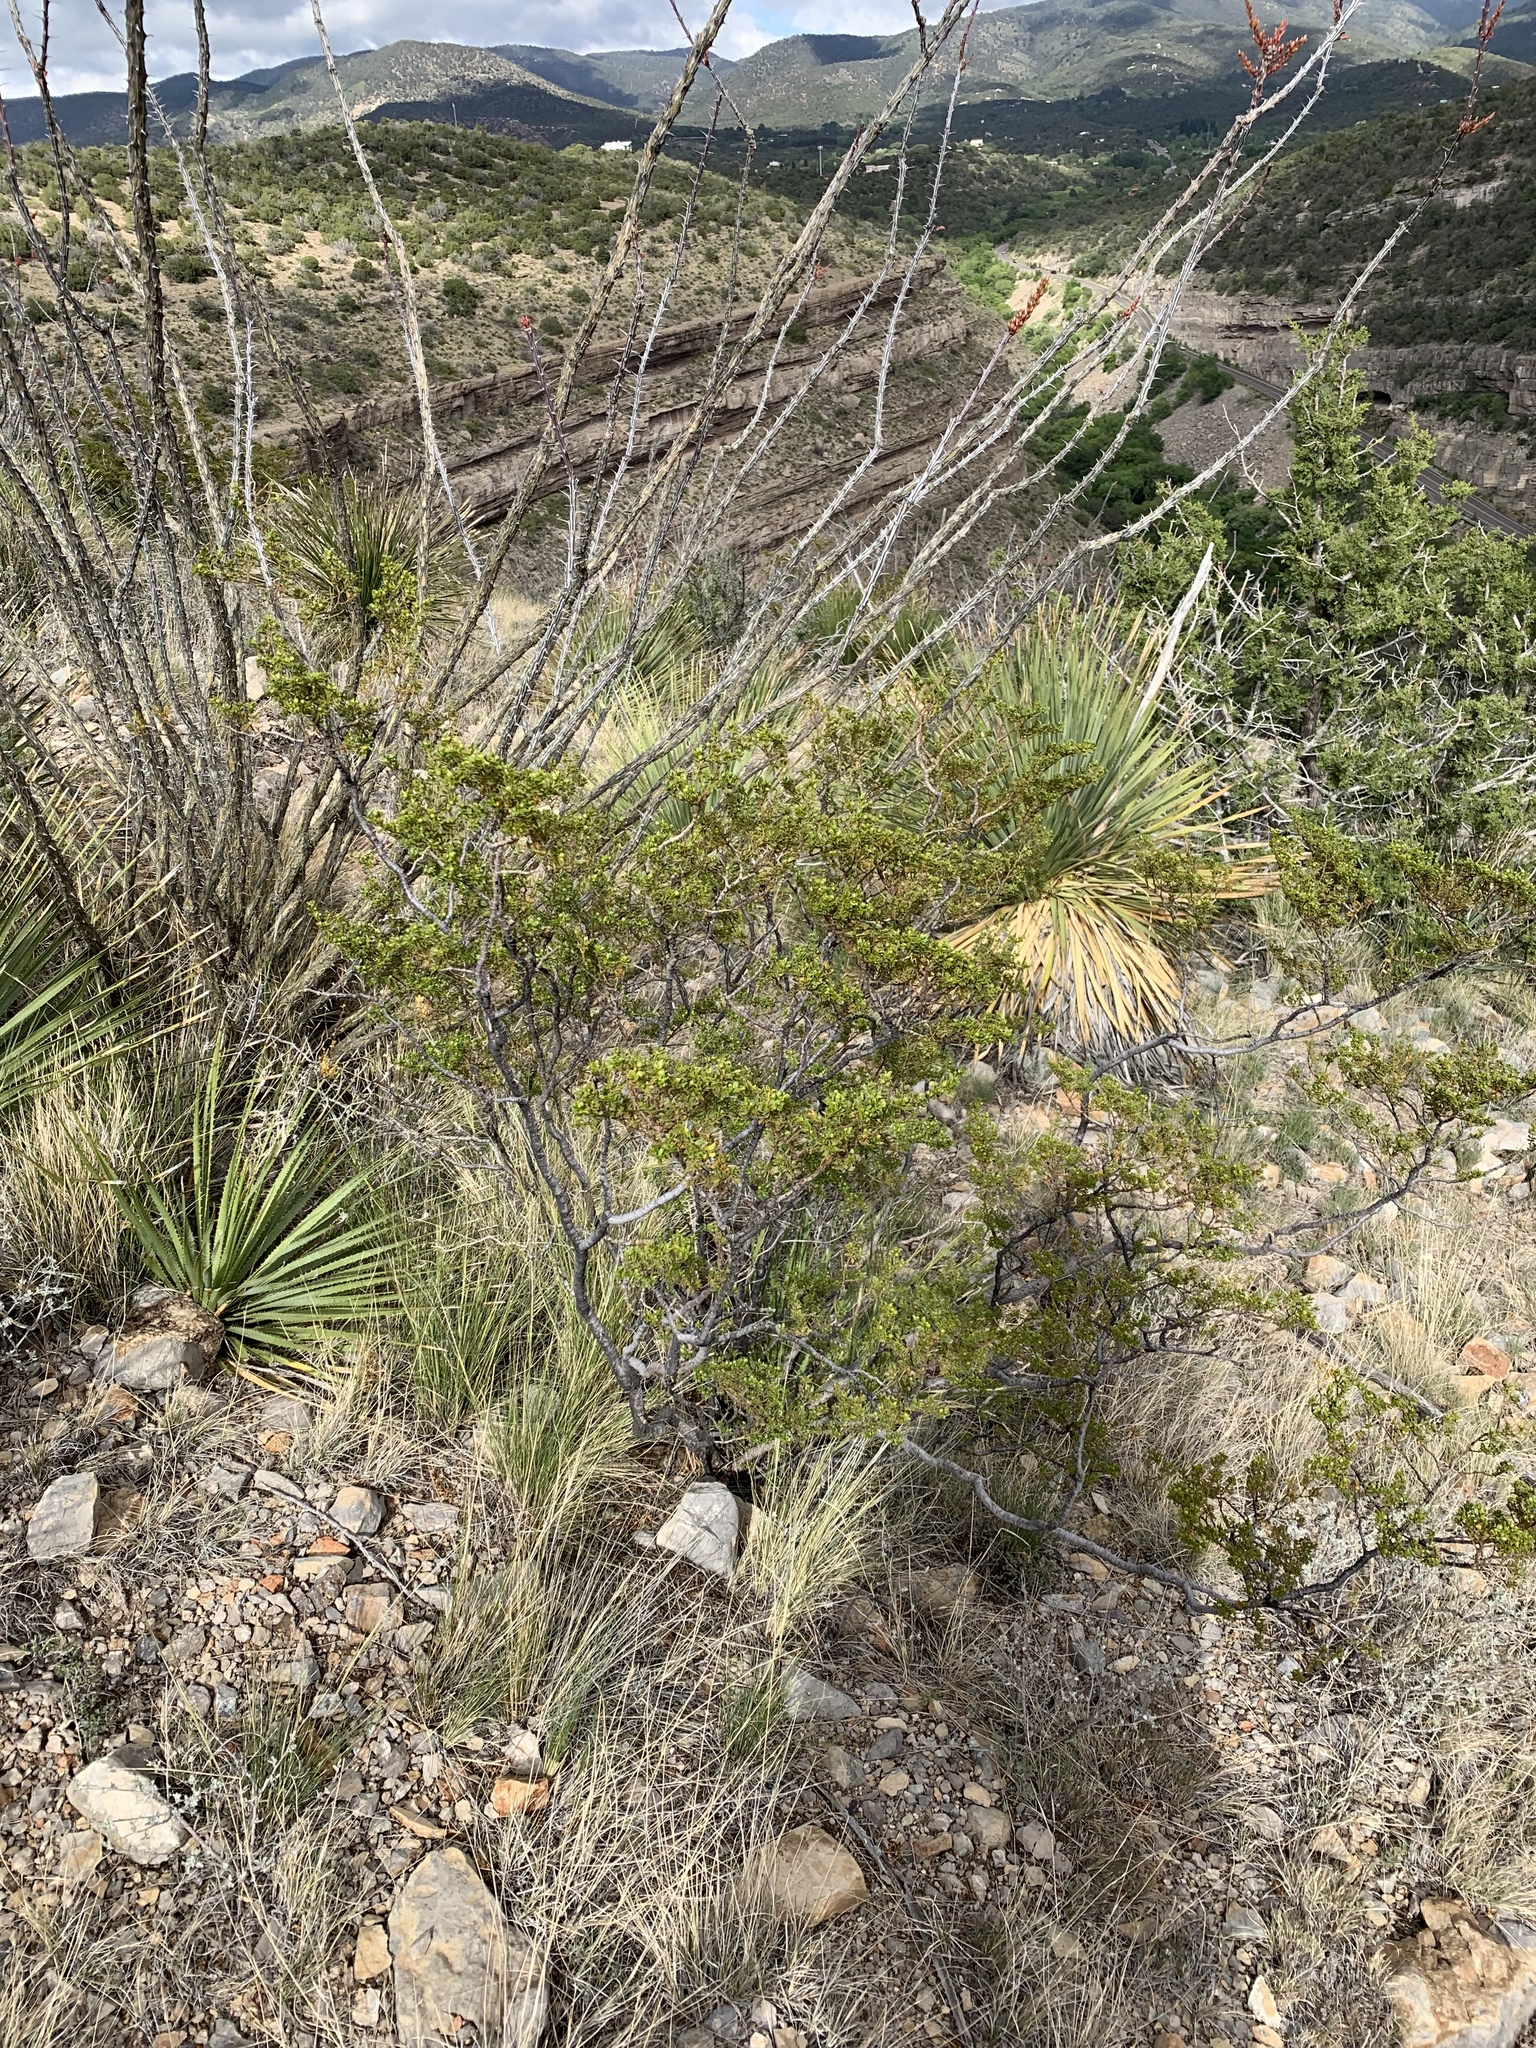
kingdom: Plantae
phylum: Tracheophyta
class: Magnoliopsida
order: Zygophyllales
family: Zygophyllaceae
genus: Larrea
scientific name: Larrea tridentata
